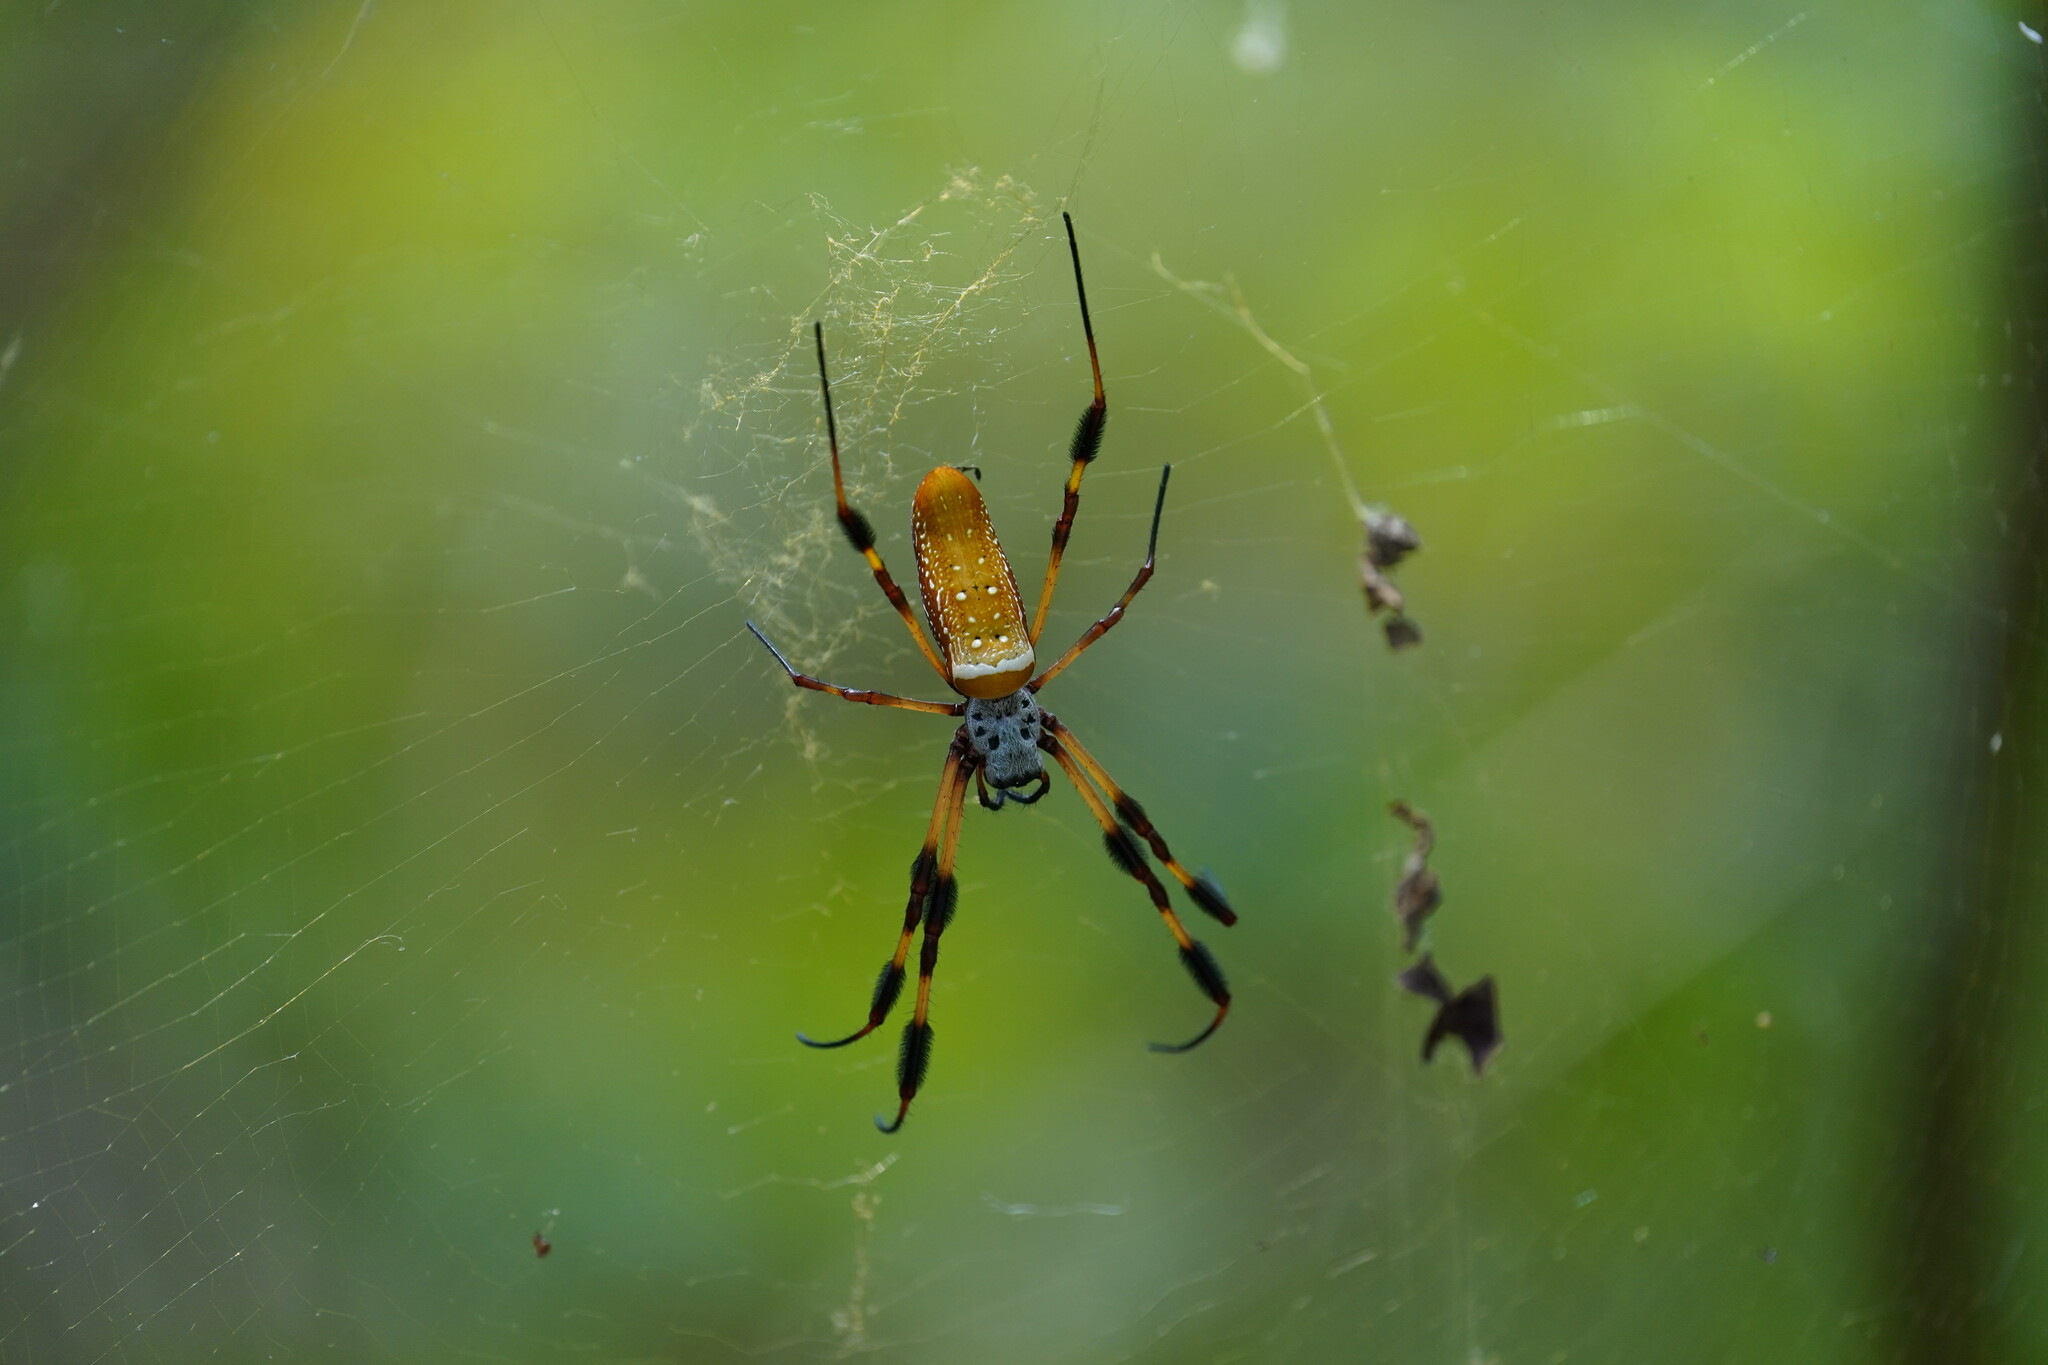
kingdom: Animalia
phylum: Arthropoda
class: Arachnida
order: Araneae
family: Araneidae
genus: Trichonephila
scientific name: Trichonephila clavipes
